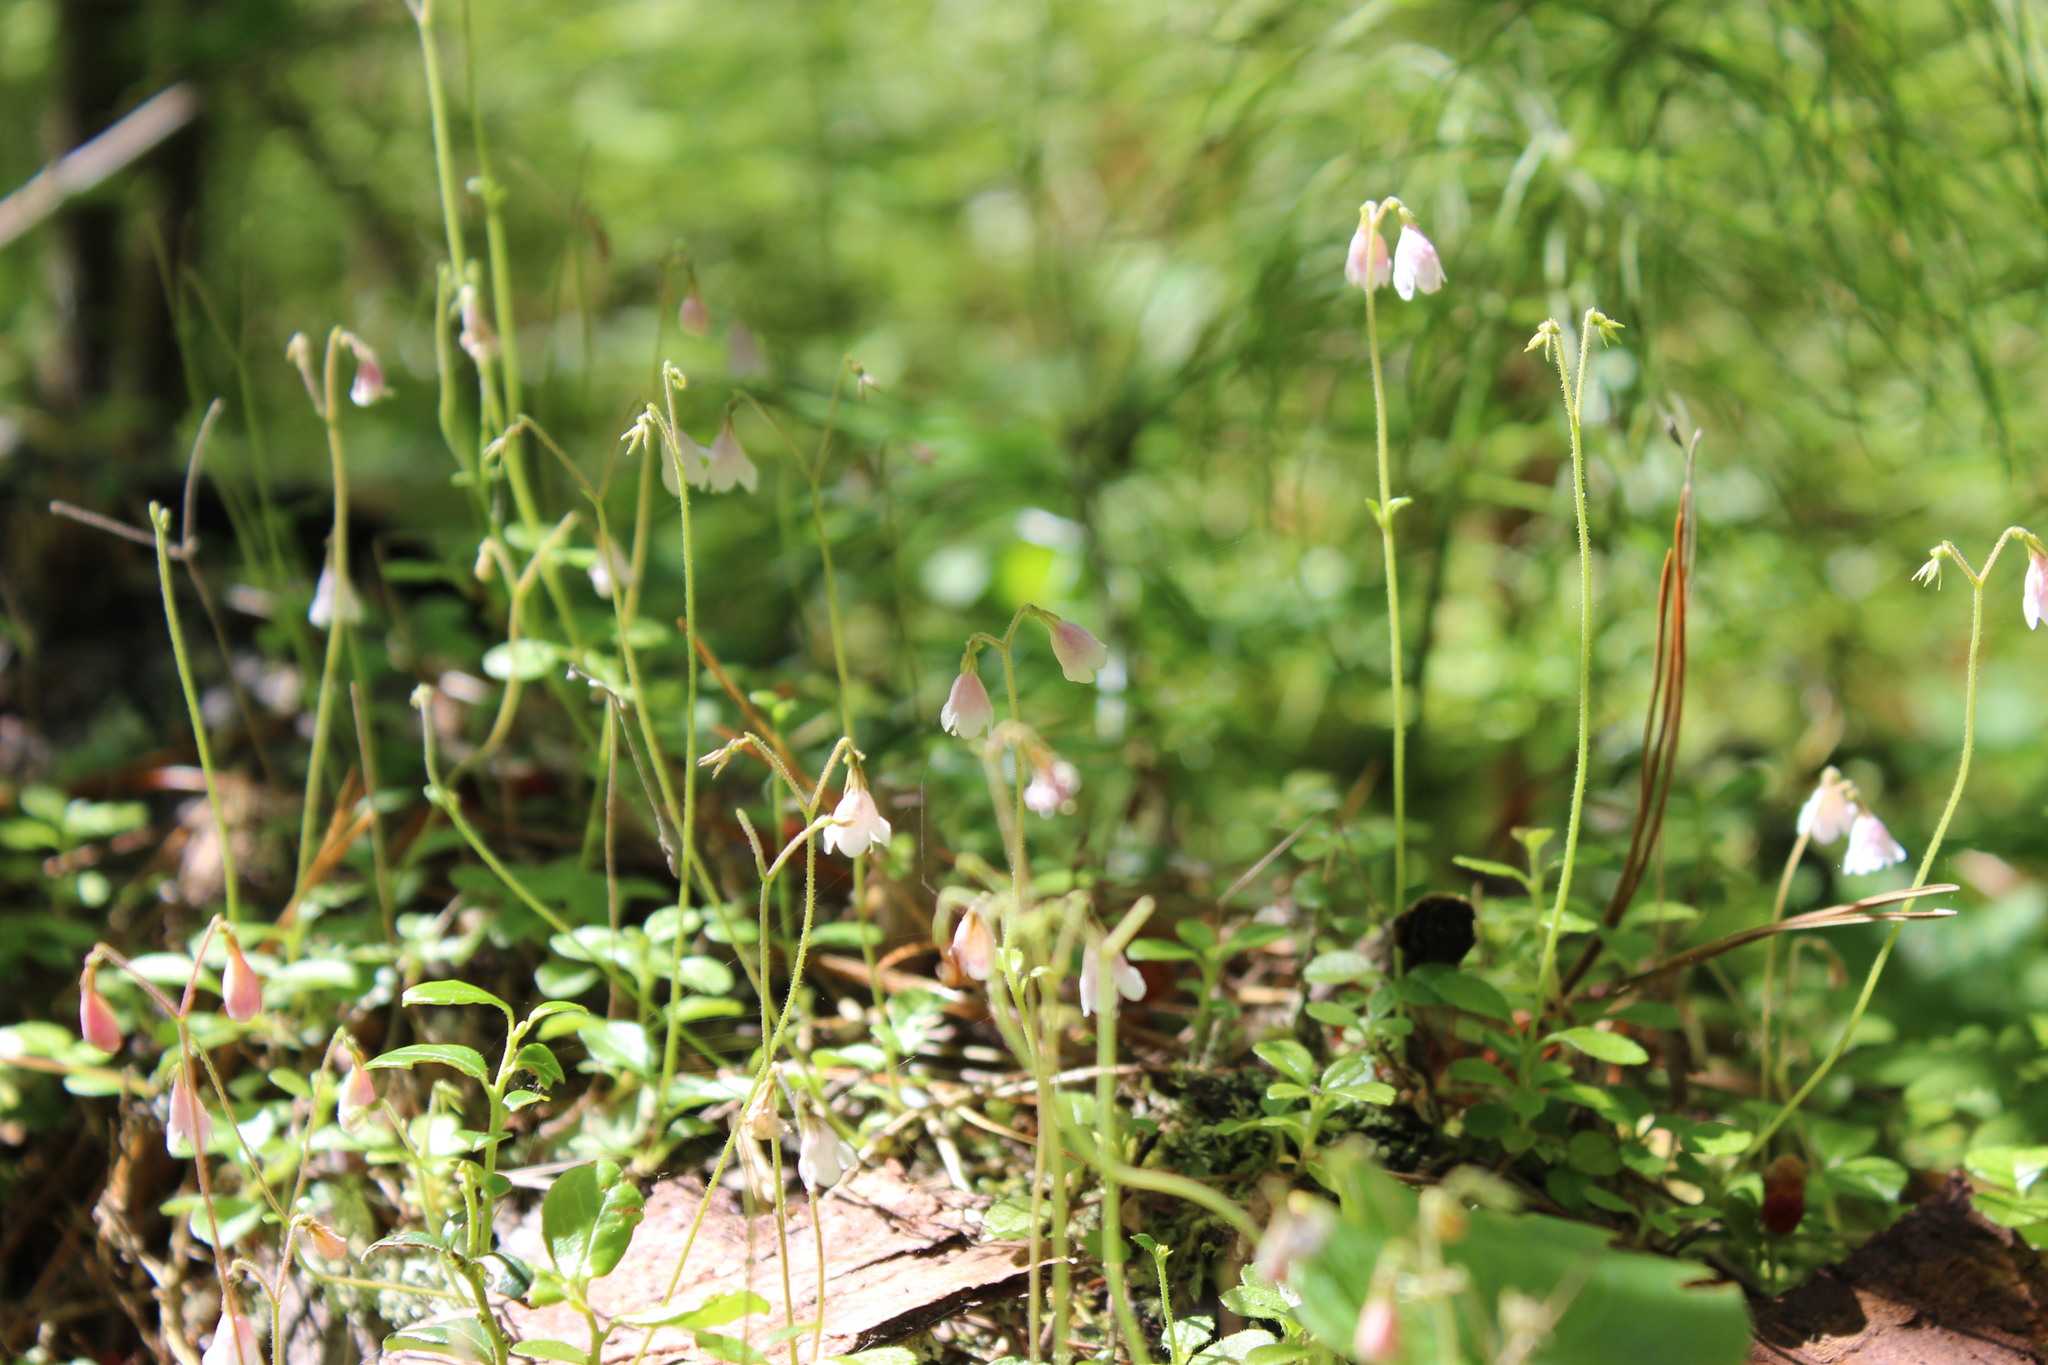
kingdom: Plantae
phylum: Tracheophyta
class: Magnoliopsida
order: Dipsacales
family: Caprifoliaceae
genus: Linnaea
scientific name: Linnaea borealis
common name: Twinflower
